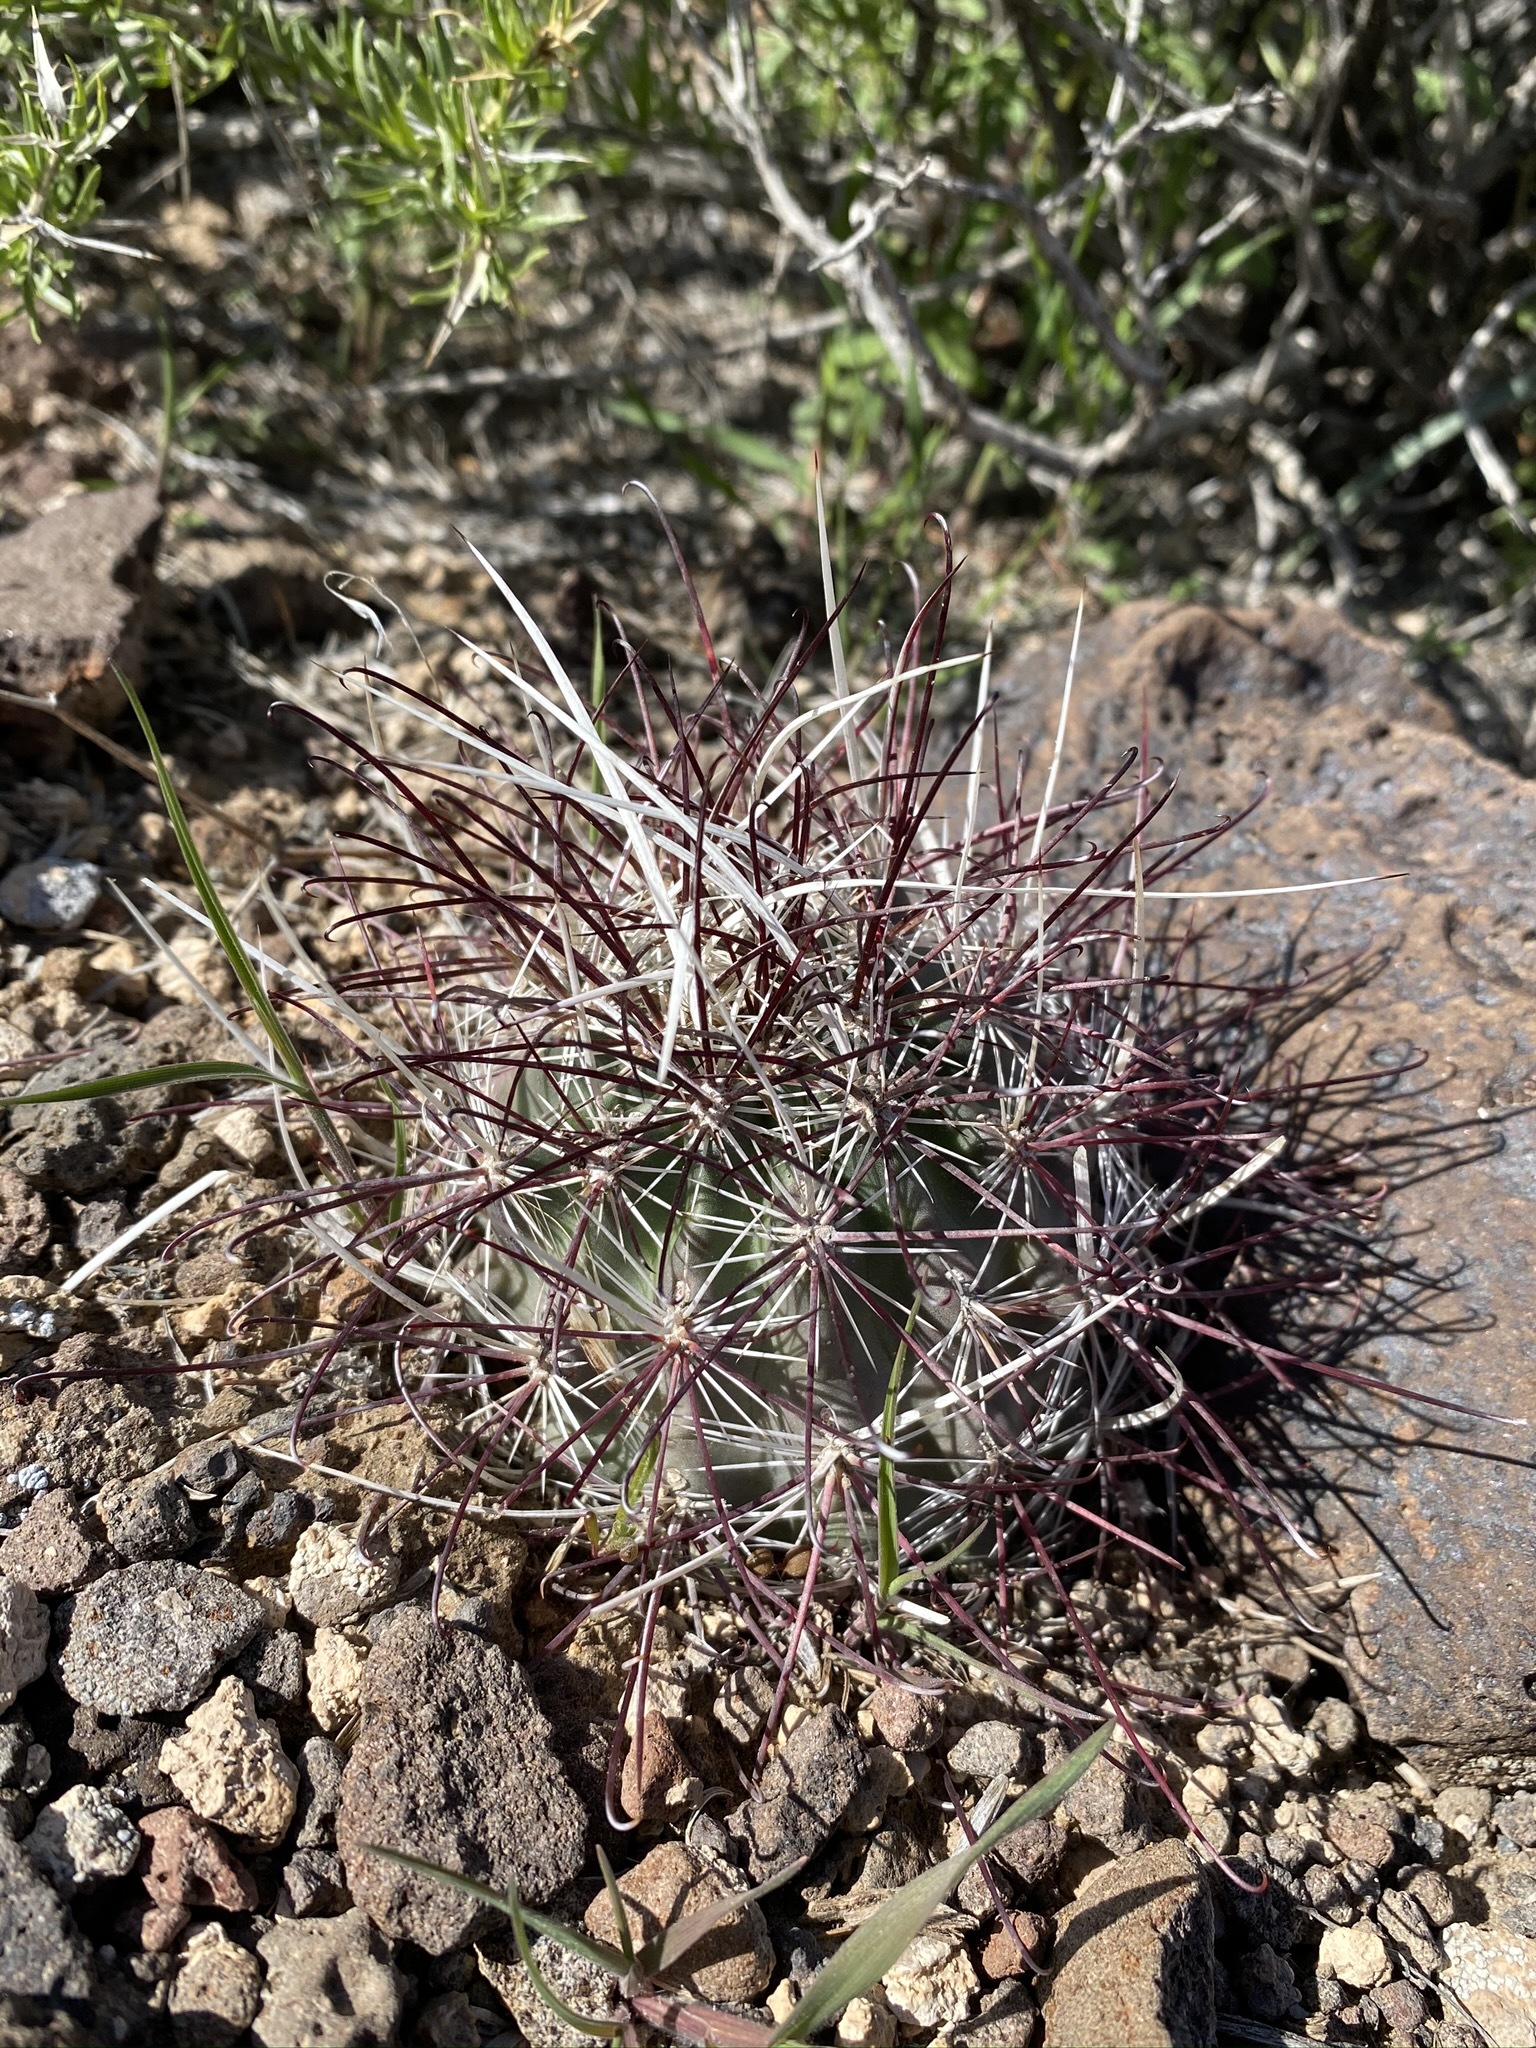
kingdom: Plantae
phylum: Tracheophyta
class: Magnoliopsida
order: Caryophyllales
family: Cactaceae
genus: Sclerocactus
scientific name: Sclerocactus polyancistrus
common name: Mohave fishhook cactus
